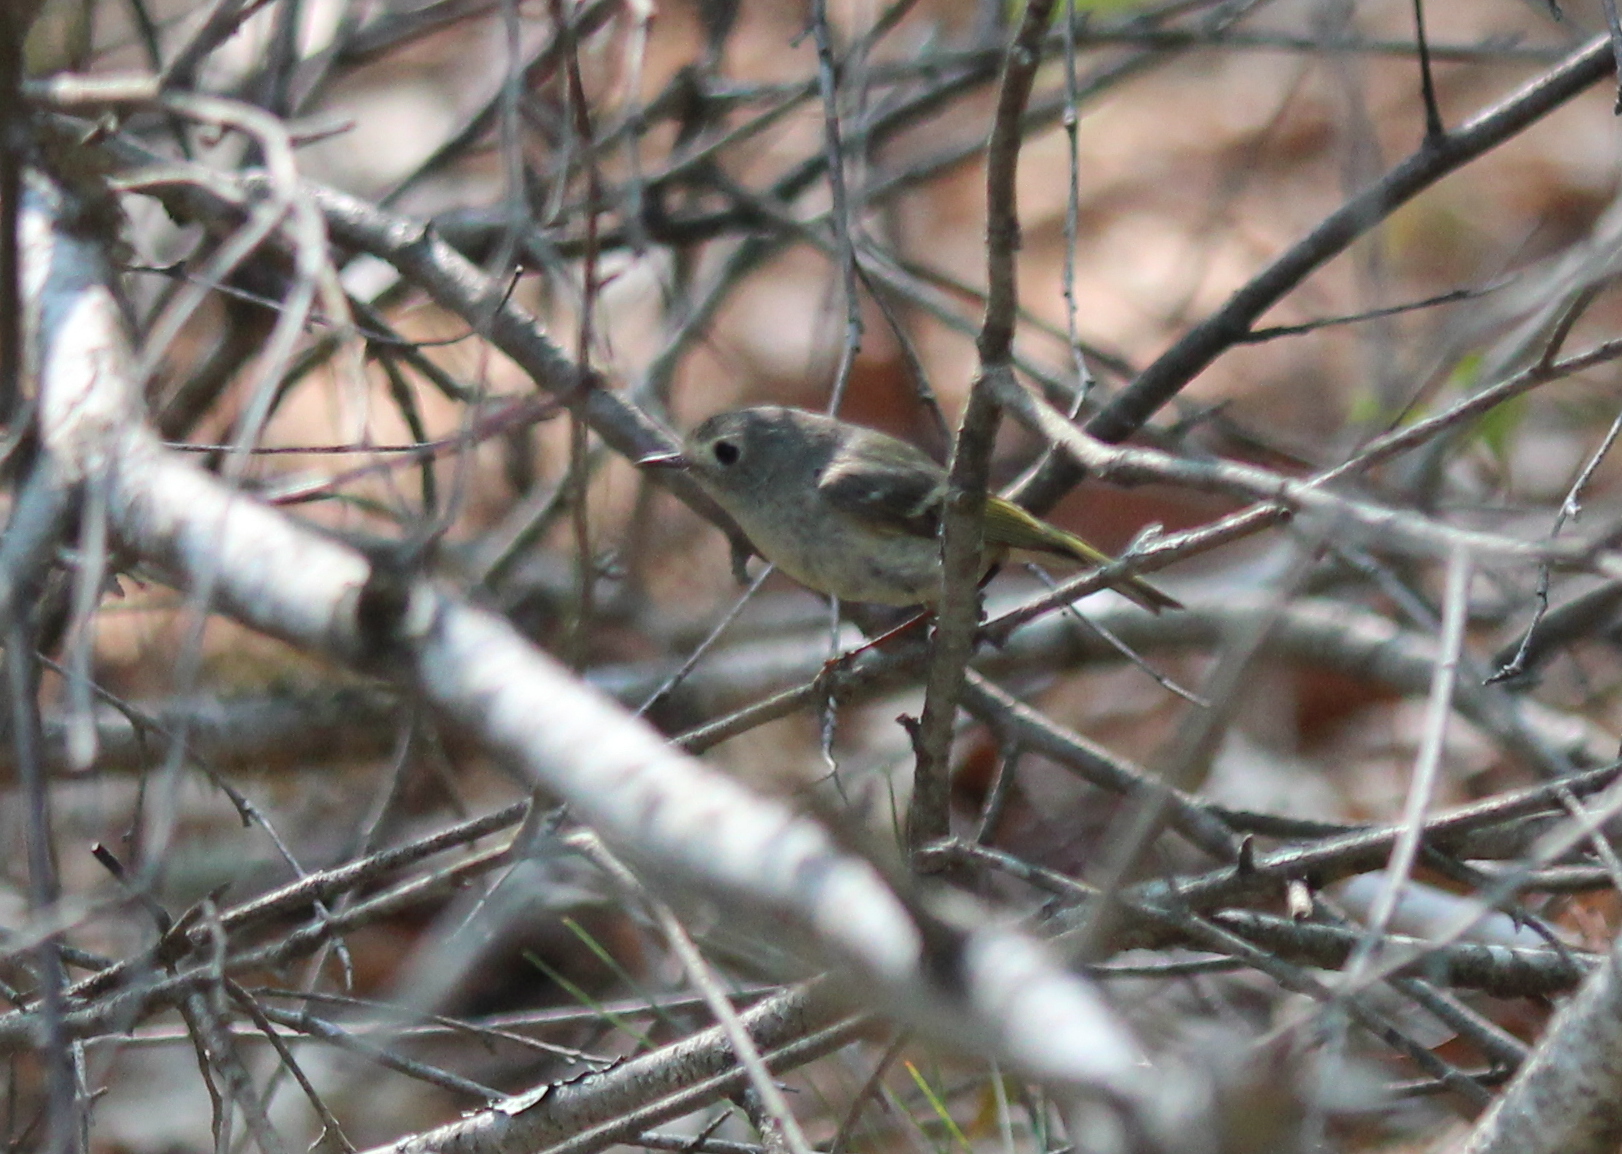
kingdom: Animalia
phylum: Chordata
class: Aves
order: Passeriformes
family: Regulidae
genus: Regulus
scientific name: Regulus calendula
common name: Ruby-crowned kinglet
